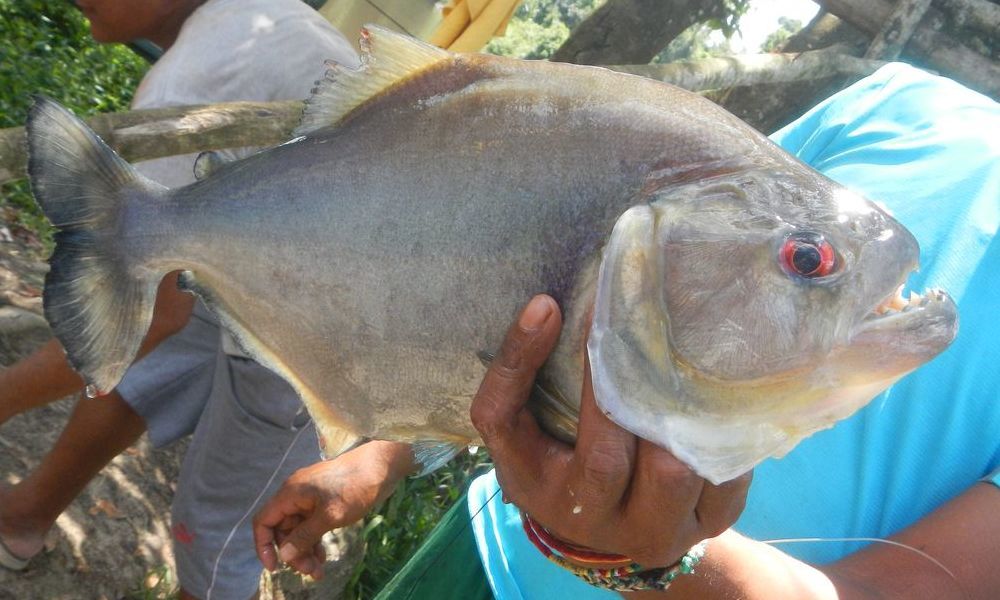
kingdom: Animalia
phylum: Chordata
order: Characiformes
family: Serrasalmidae
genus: Serrasalmus
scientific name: Serrasalmus rhombeus
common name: Redeye piranha
